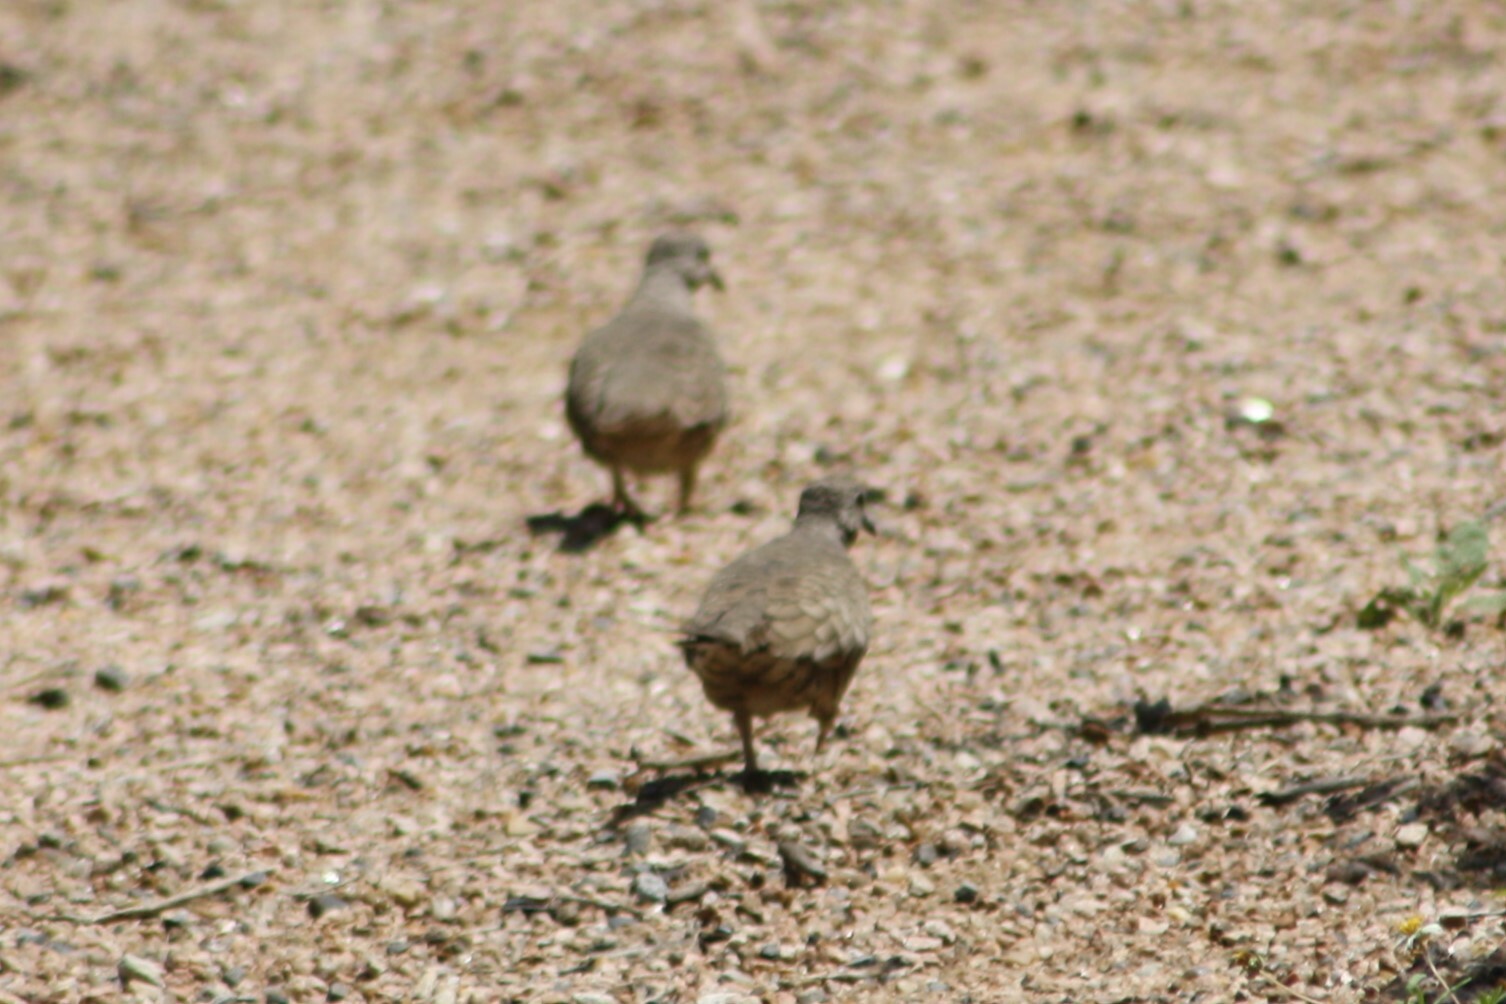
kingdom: Animalia
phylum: Chordata
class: Aves
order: Columbiformes
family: Columbidae
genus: Columbina
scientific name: Columbina inca
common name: Inca dove
